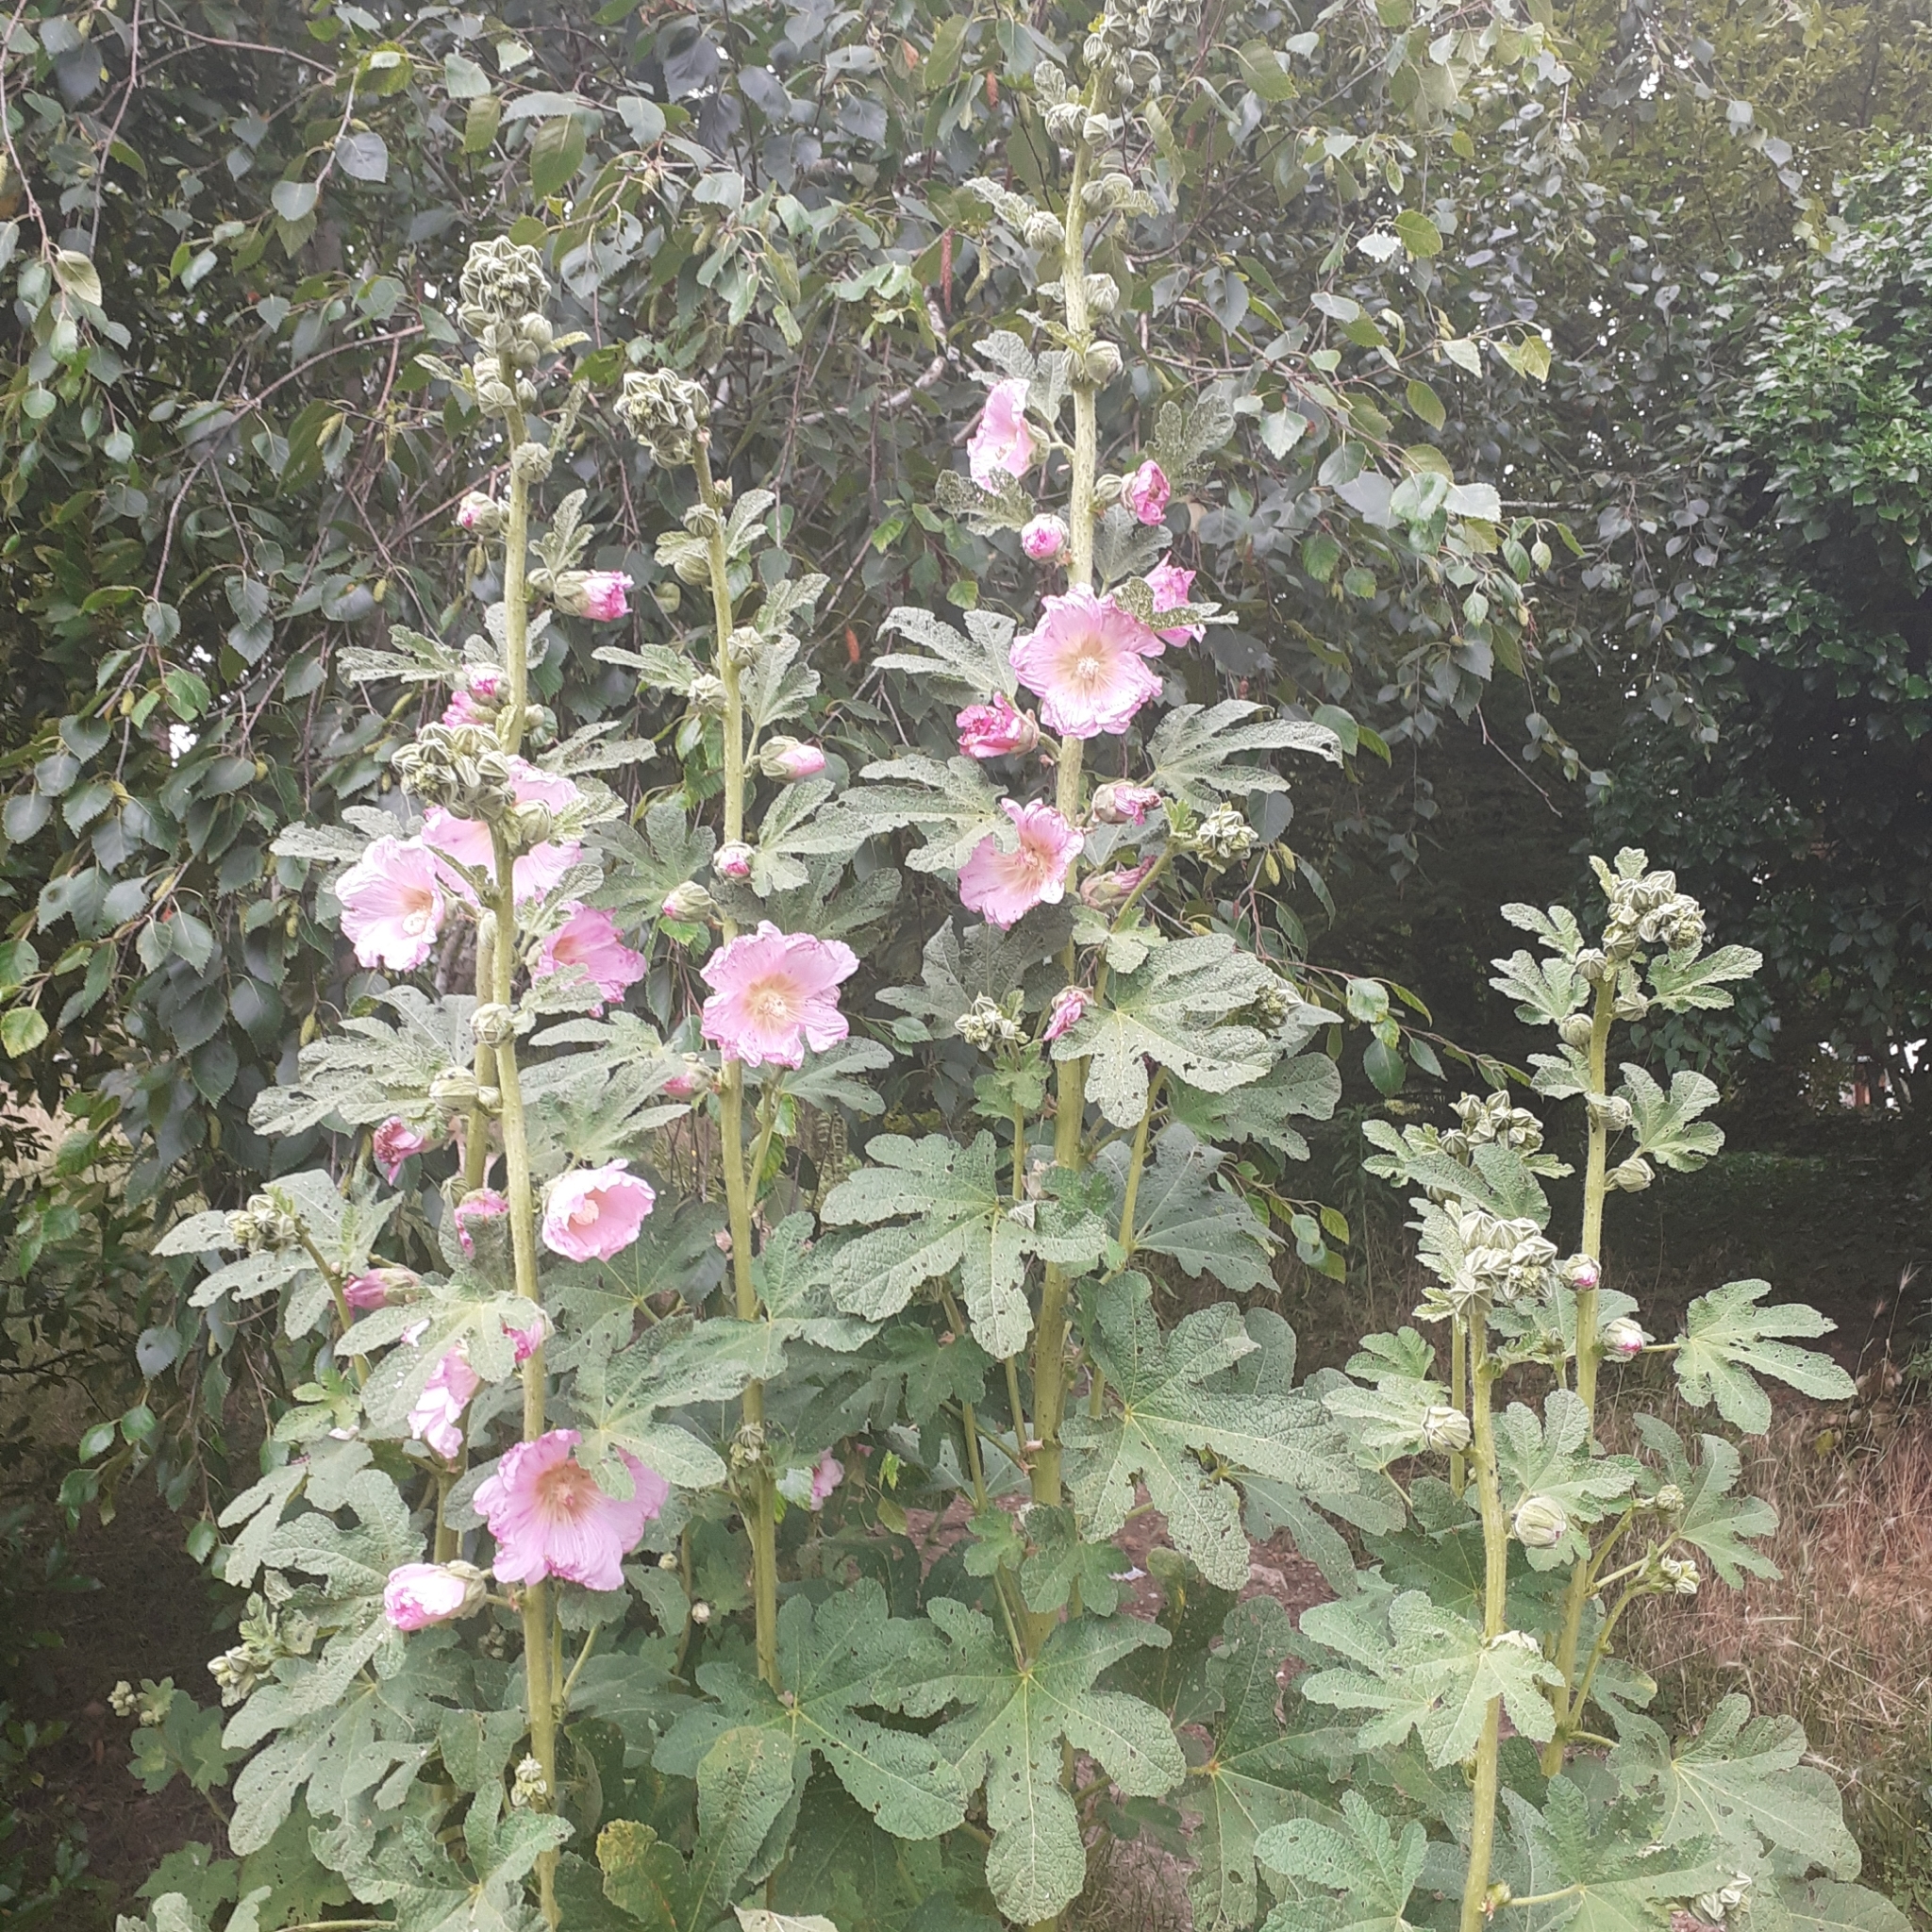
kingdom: Plantae
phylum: Tracheophyta
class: Magnoliopsida
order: Malvales
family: Malvaceae
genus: Alcea
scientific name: Alcea rosea
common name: Hollyhock
